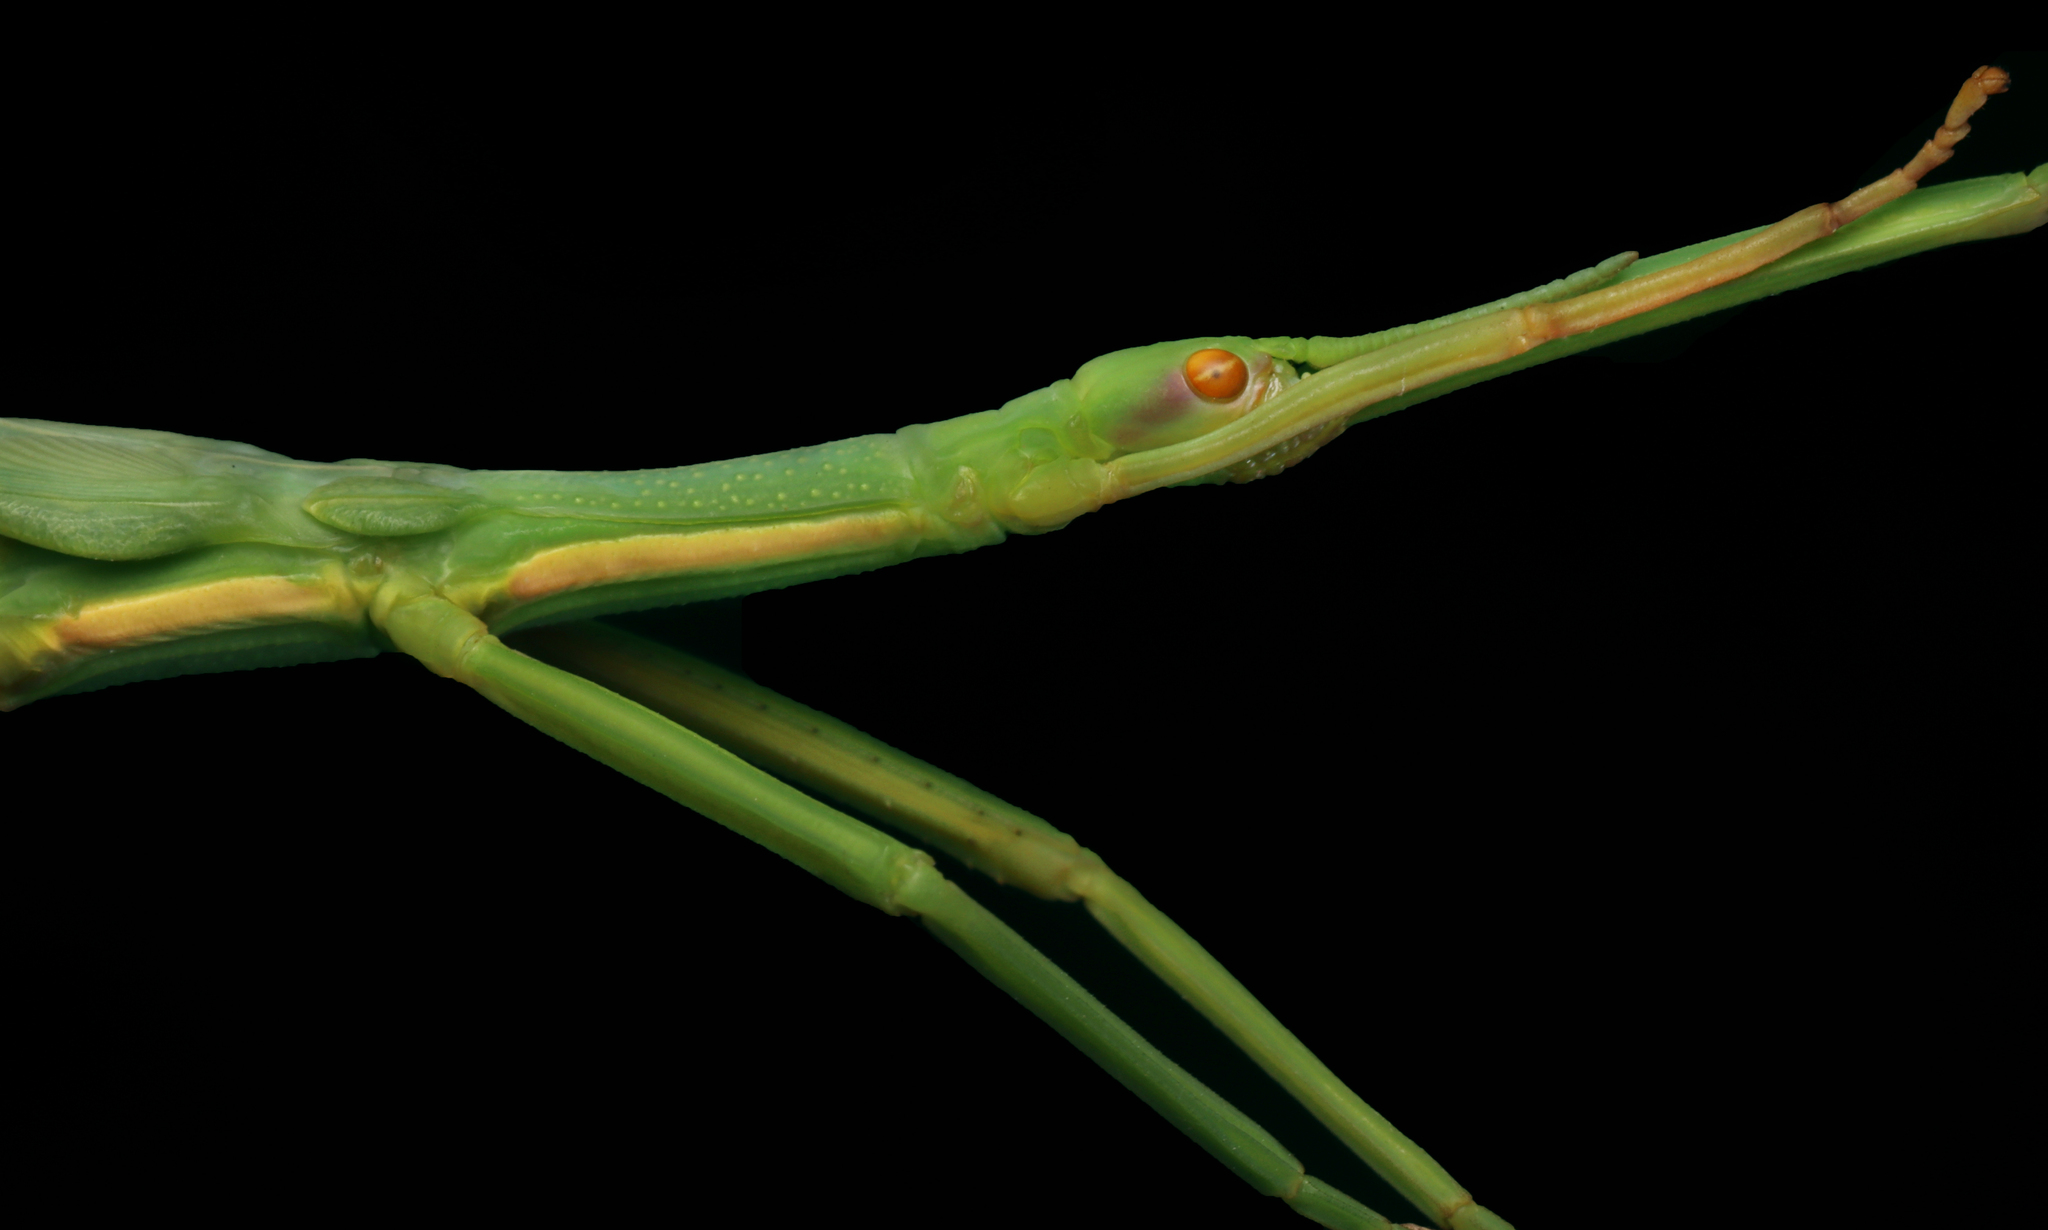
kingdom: Animalia
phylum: Arthropoda
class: Insecta
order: Phasmida
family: Phasmatidae
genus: Didymuria
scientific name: Didymuria violescens
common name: Spur-legged stick-insect
